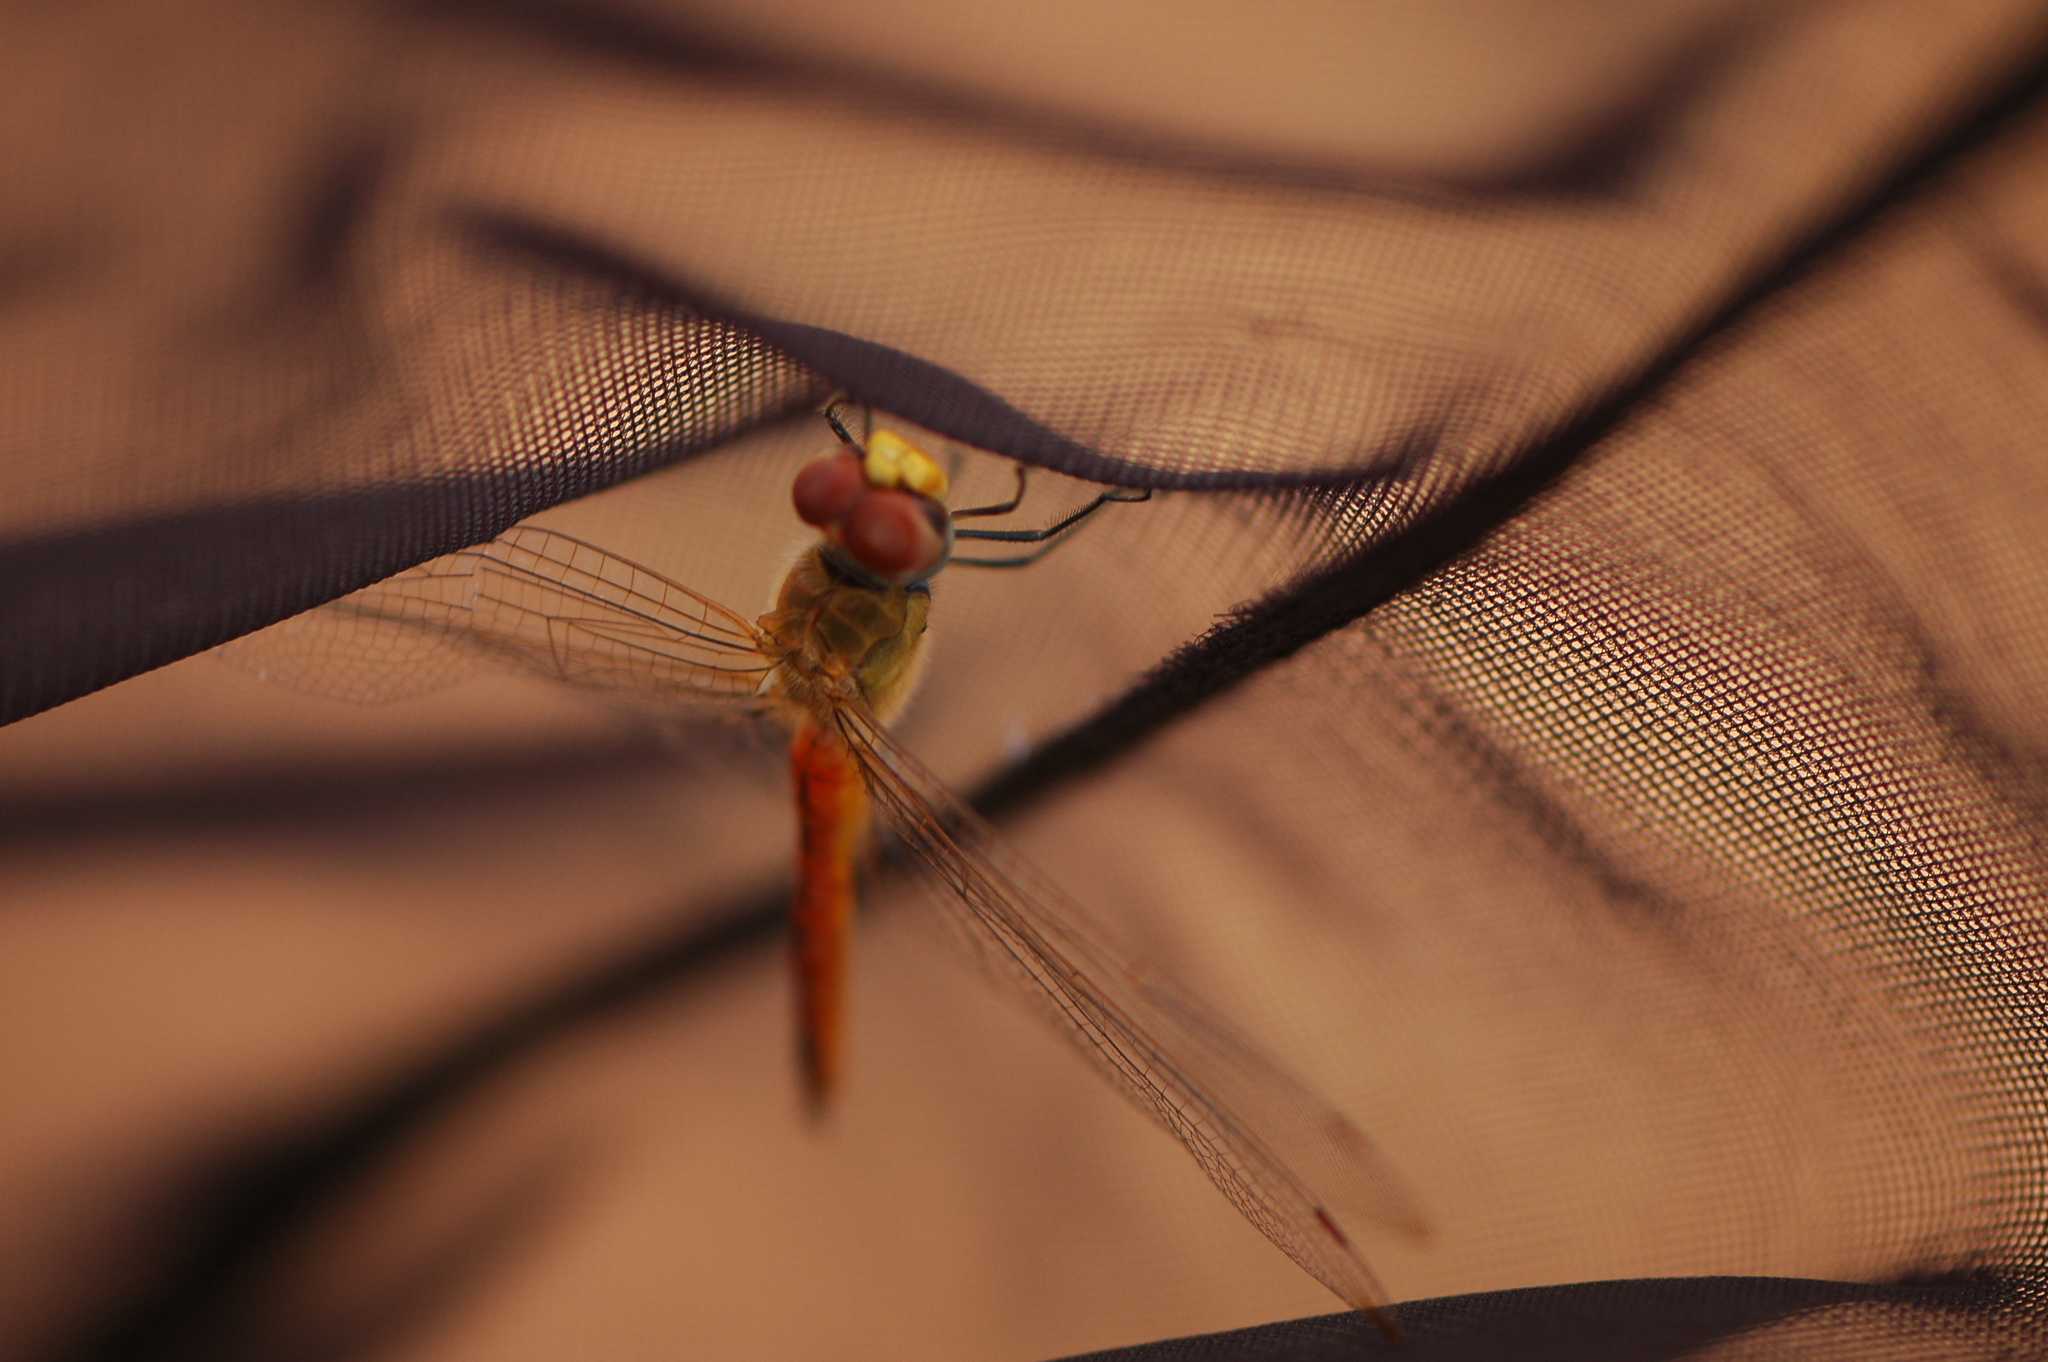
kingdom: Animalia
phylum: Arthropoda
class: Insecta
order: Odonata
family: Libellulidae
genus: Pantala
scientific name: Pantala flavescens
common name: Wandering glider
